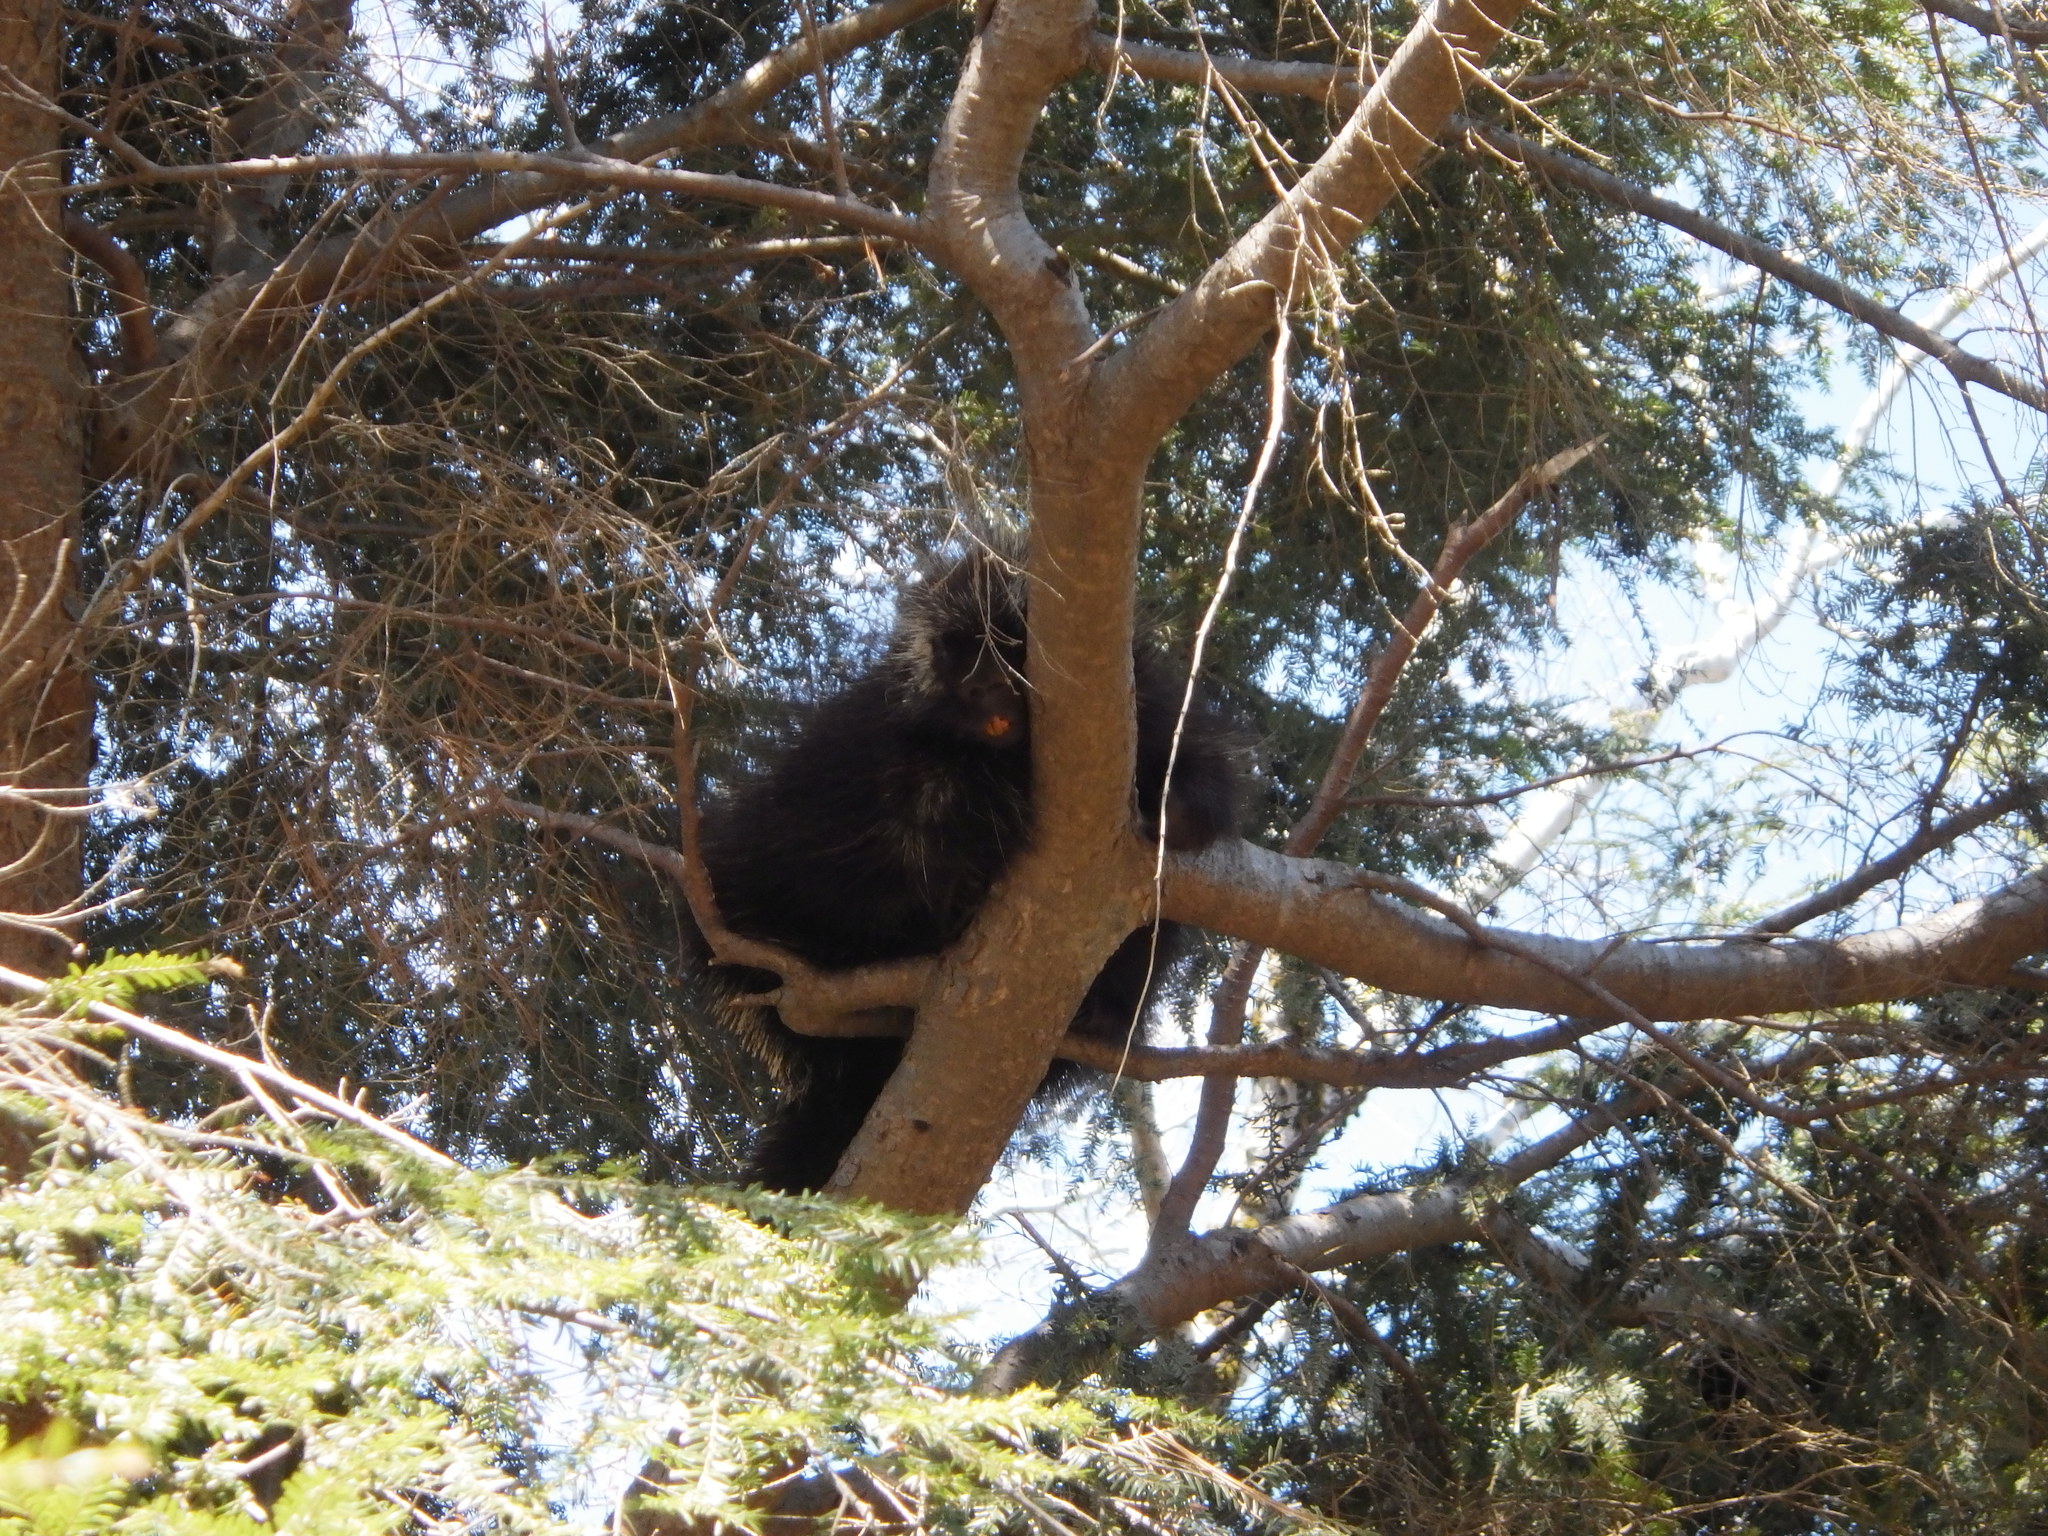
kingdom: Animalia
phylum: Chordata
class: Mammalia
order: Rodentia
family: Erethizontidae
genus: Erethizon
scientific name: Erethizon dorsatus
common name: North american porcupine
